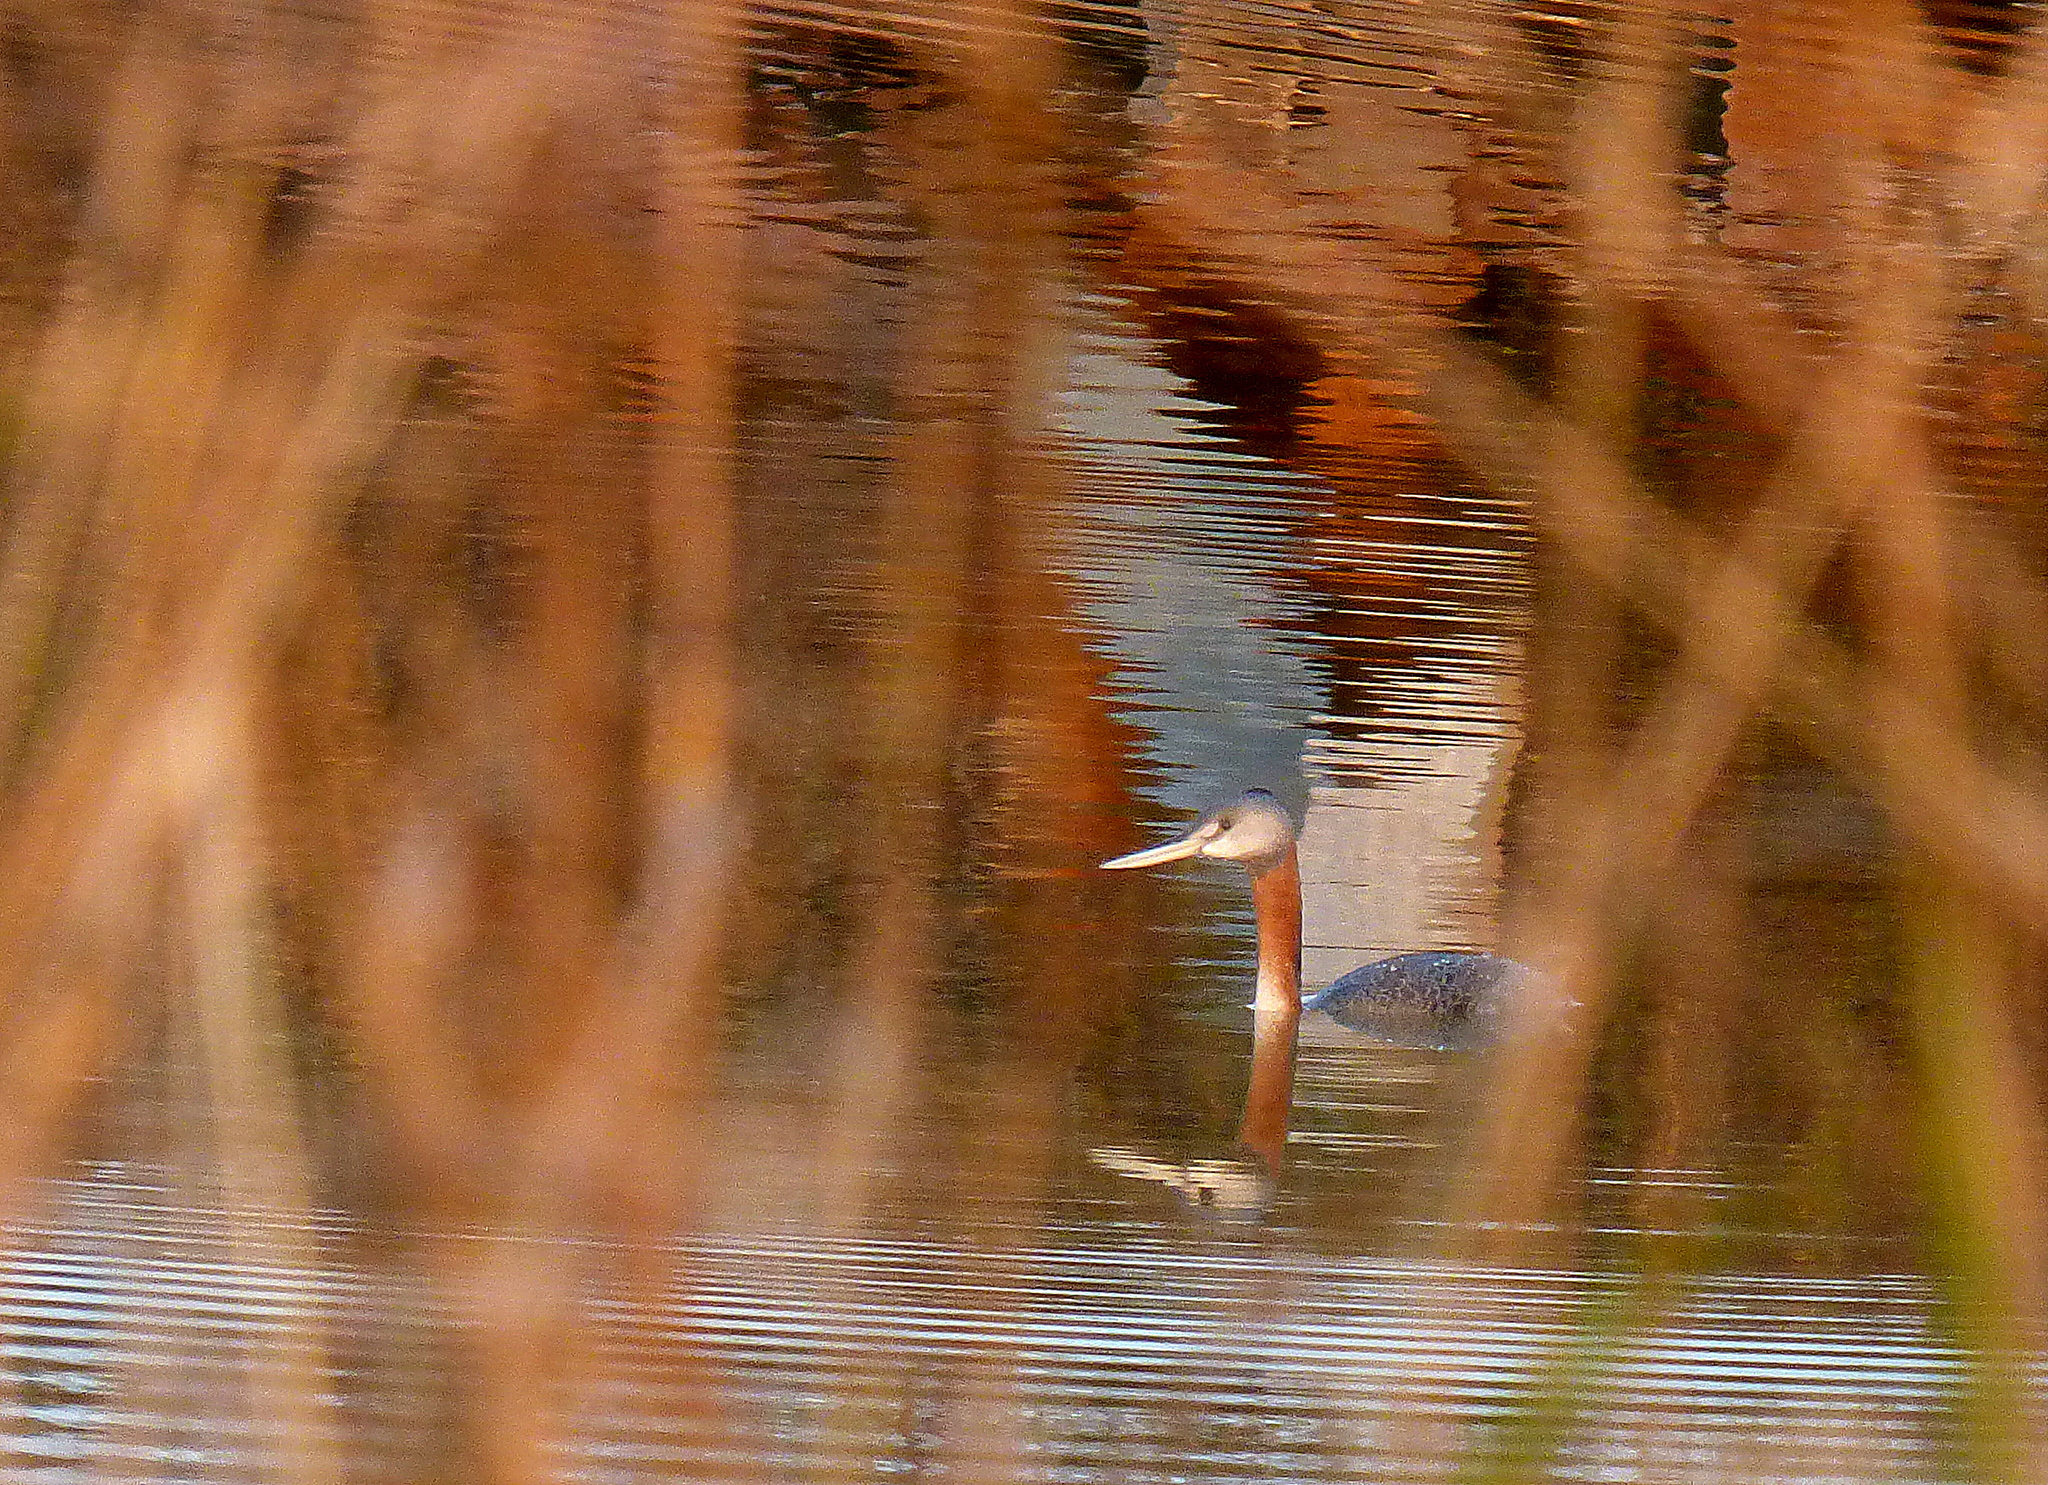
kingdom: Animalia
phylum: Chordata
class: Aves
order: Podicipediformes
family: Podicipedidae
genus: Podiceps
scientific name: Podiceps major
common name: Great grebe
